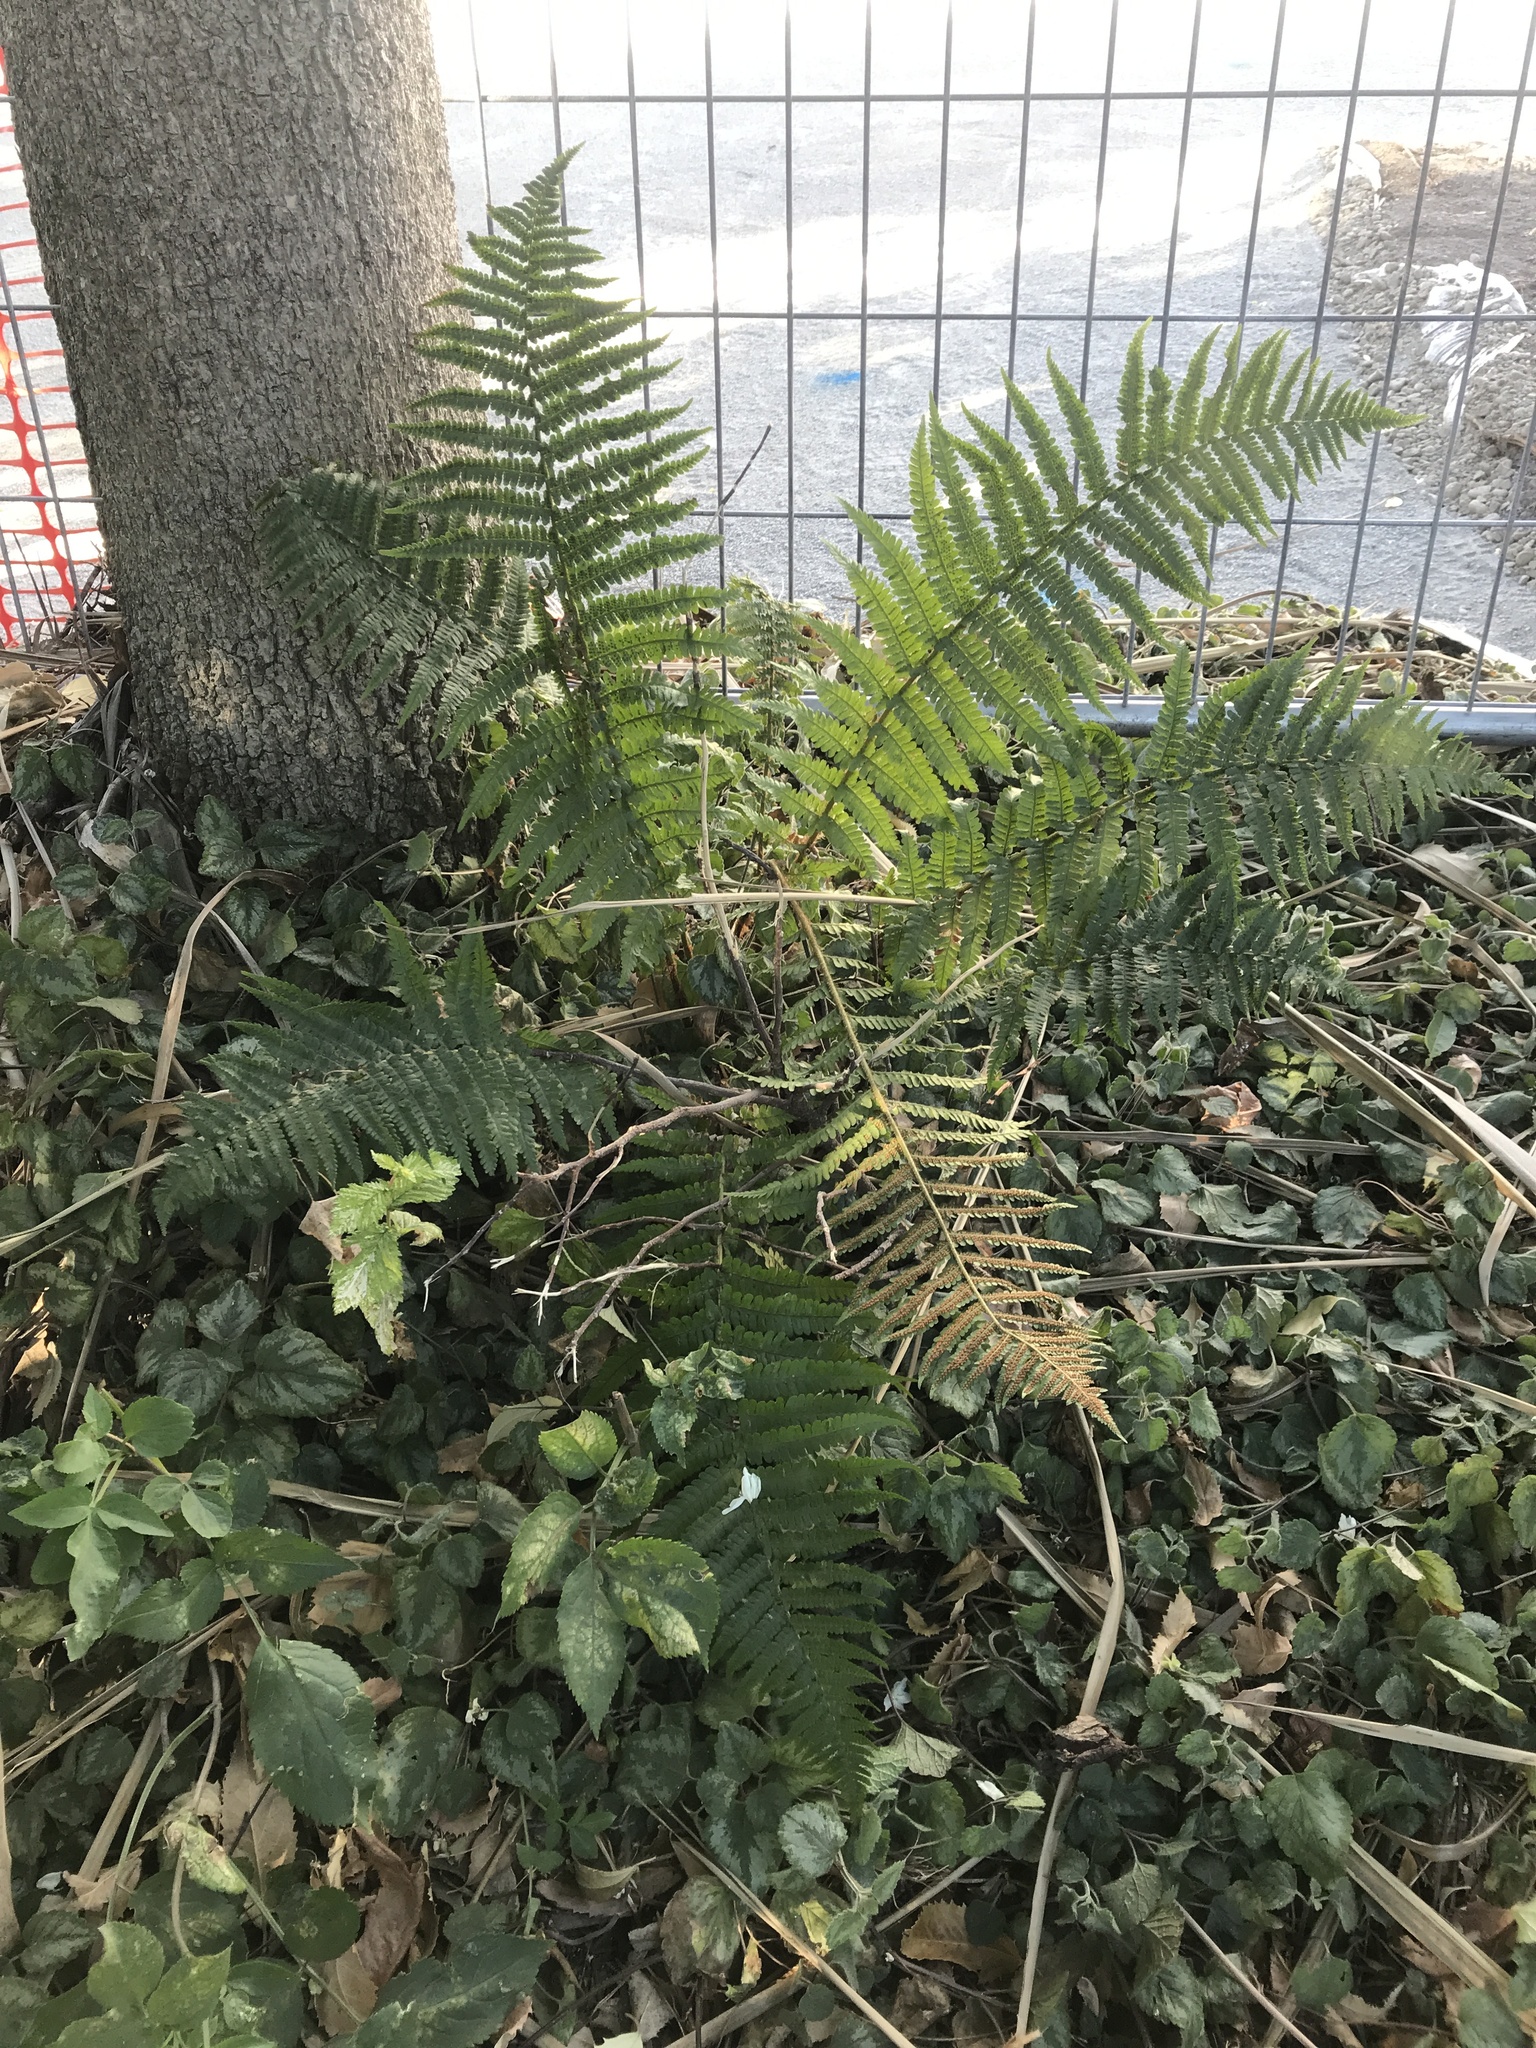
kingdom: Plantae
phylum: Tracheophyta
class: Polypodiopsida
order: Polypodiales
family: Dryopteridaceae
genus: Dryopteris
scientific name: Dryopteris filix-mas
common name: Male fern
